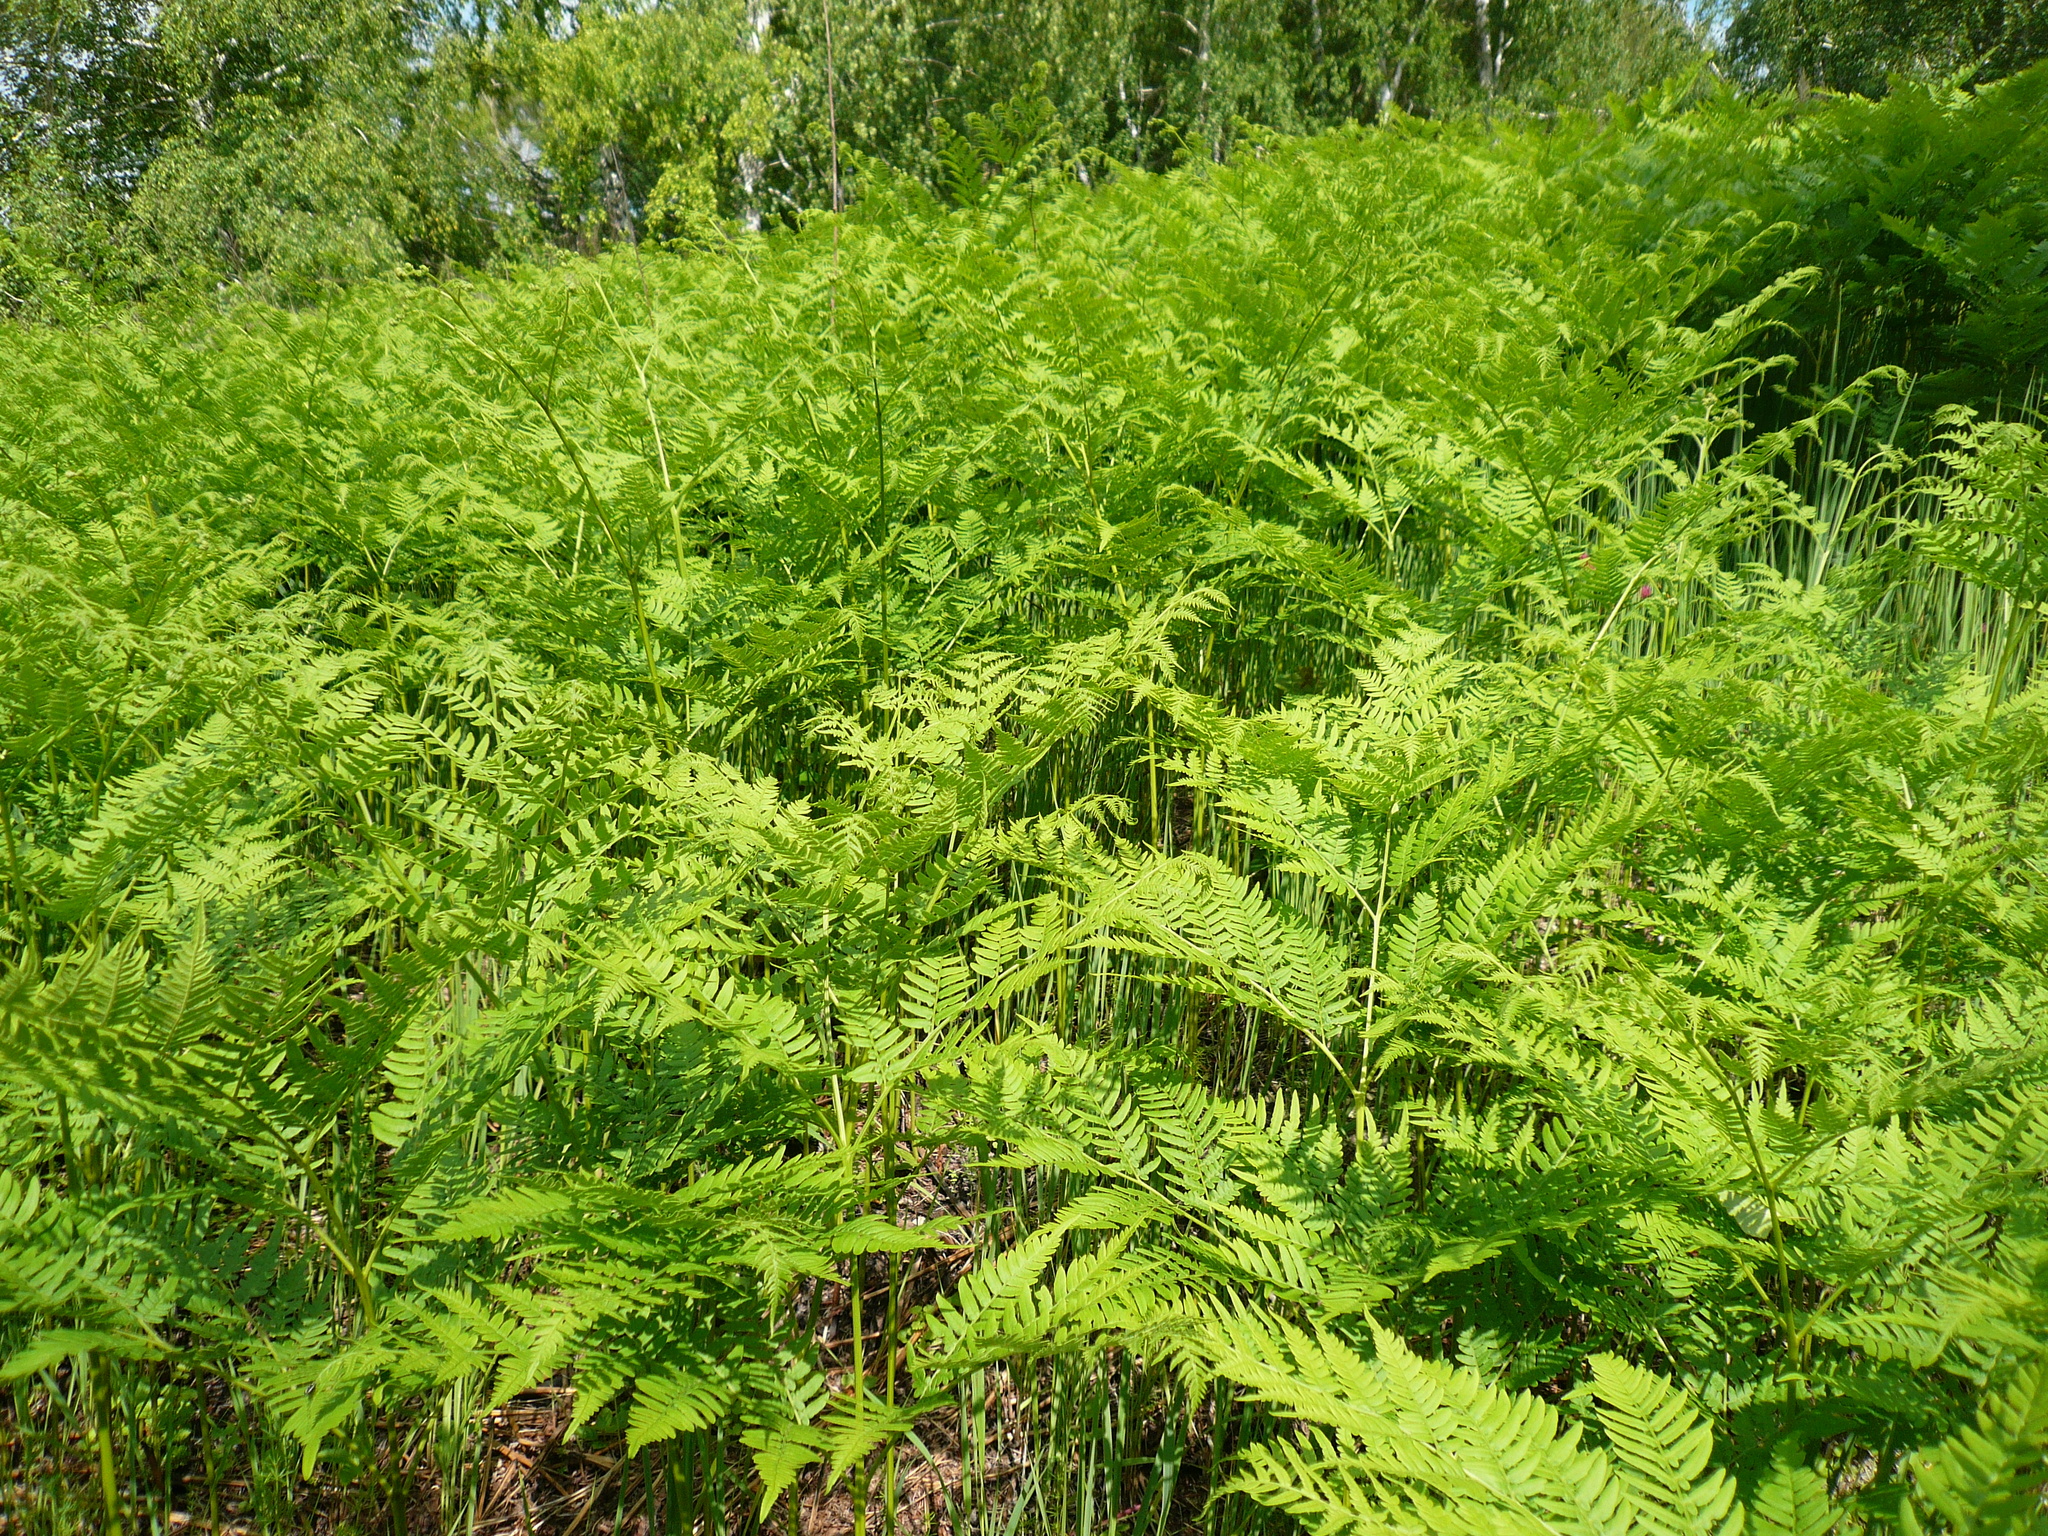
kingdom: Plantae
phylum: Tracheophyta
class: Polypodiopsida
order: Polypodiales
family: Dennstaedtiaceae
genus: Pteridium
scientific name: Pteridium aquilinum
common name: Bracken
